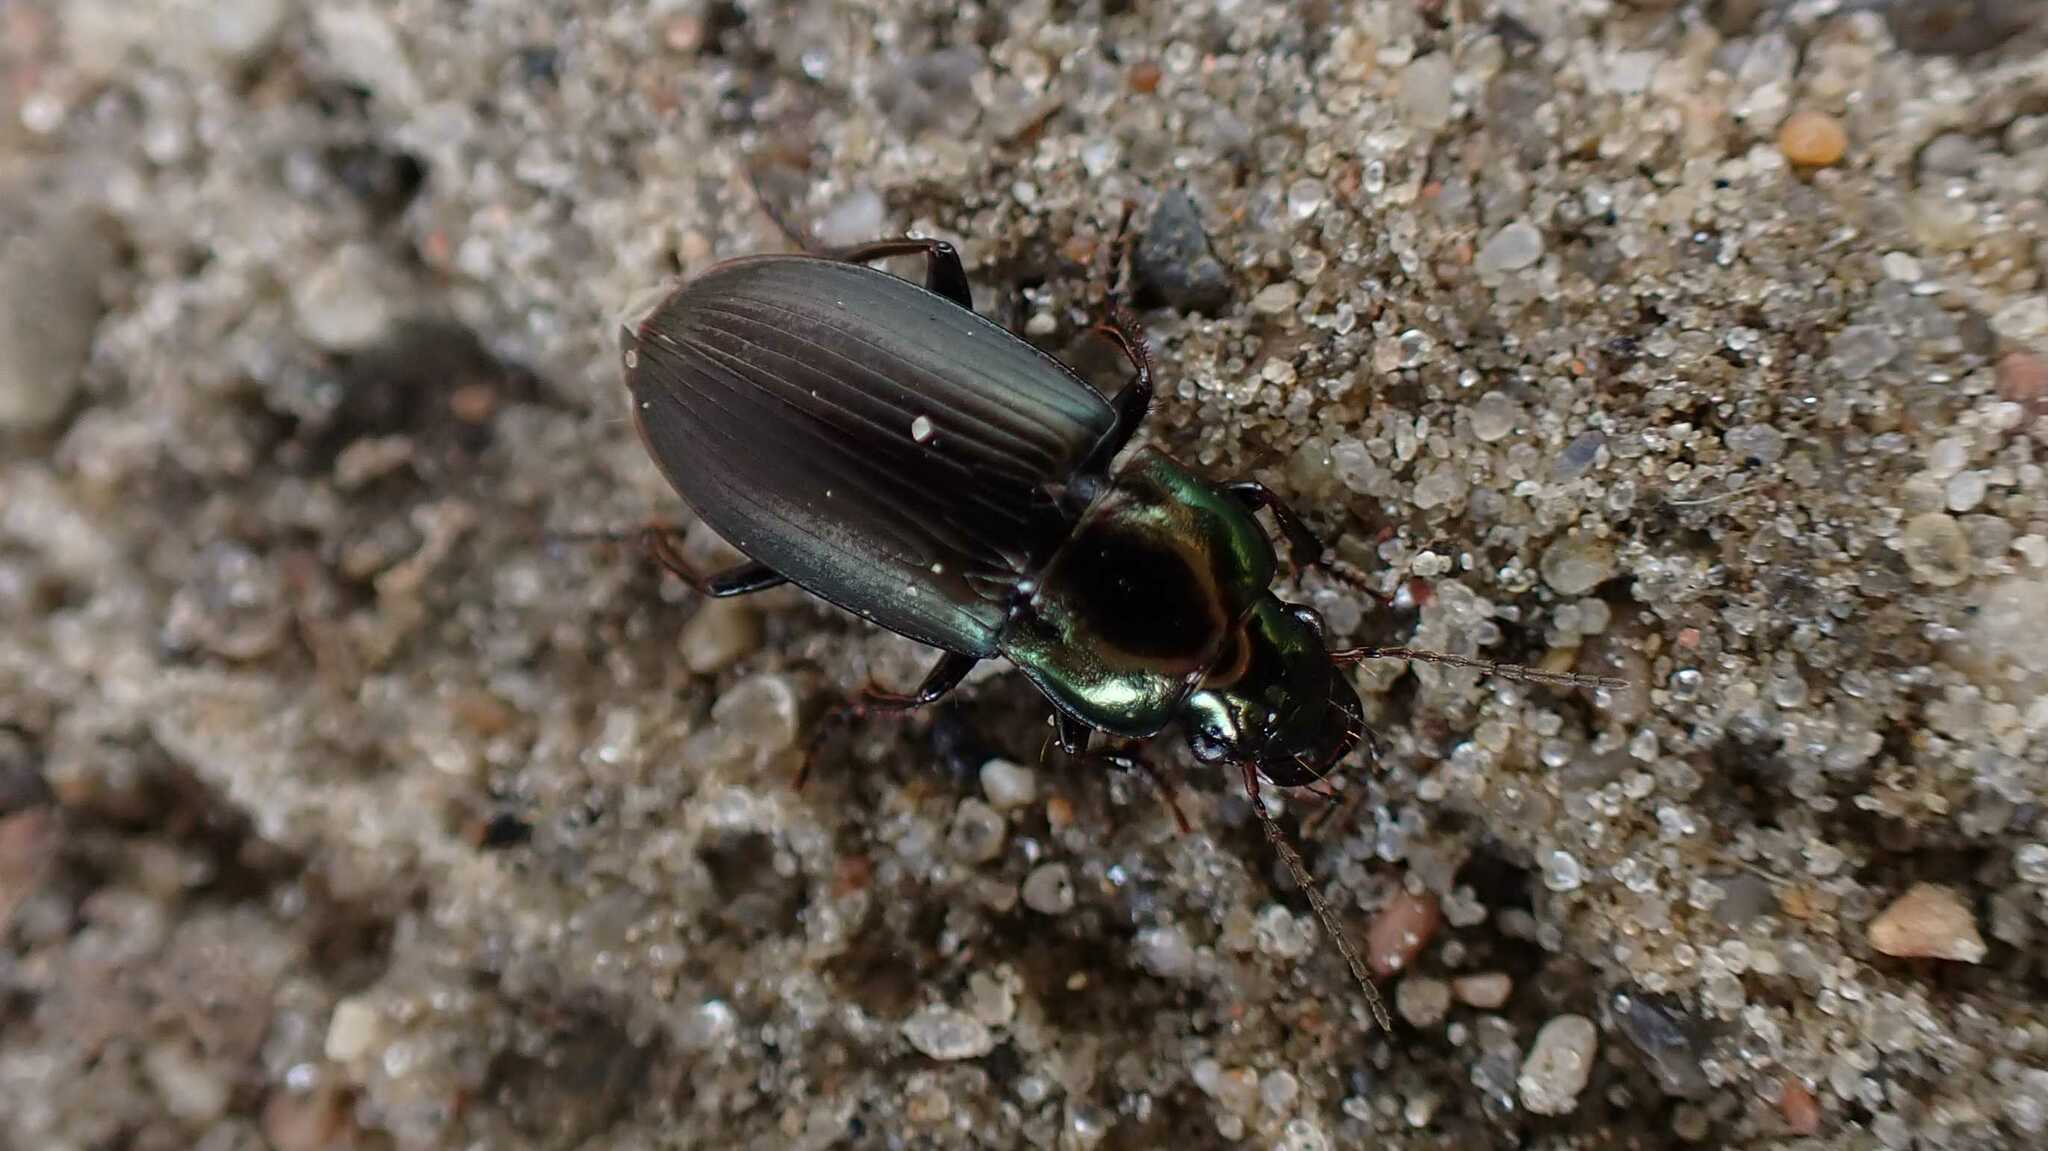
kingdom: Animalia
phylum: Arthropoda
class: Insecta
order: Coleoptera
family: Carabidae
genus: Harpalus
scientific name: Harpalus distinguendus
